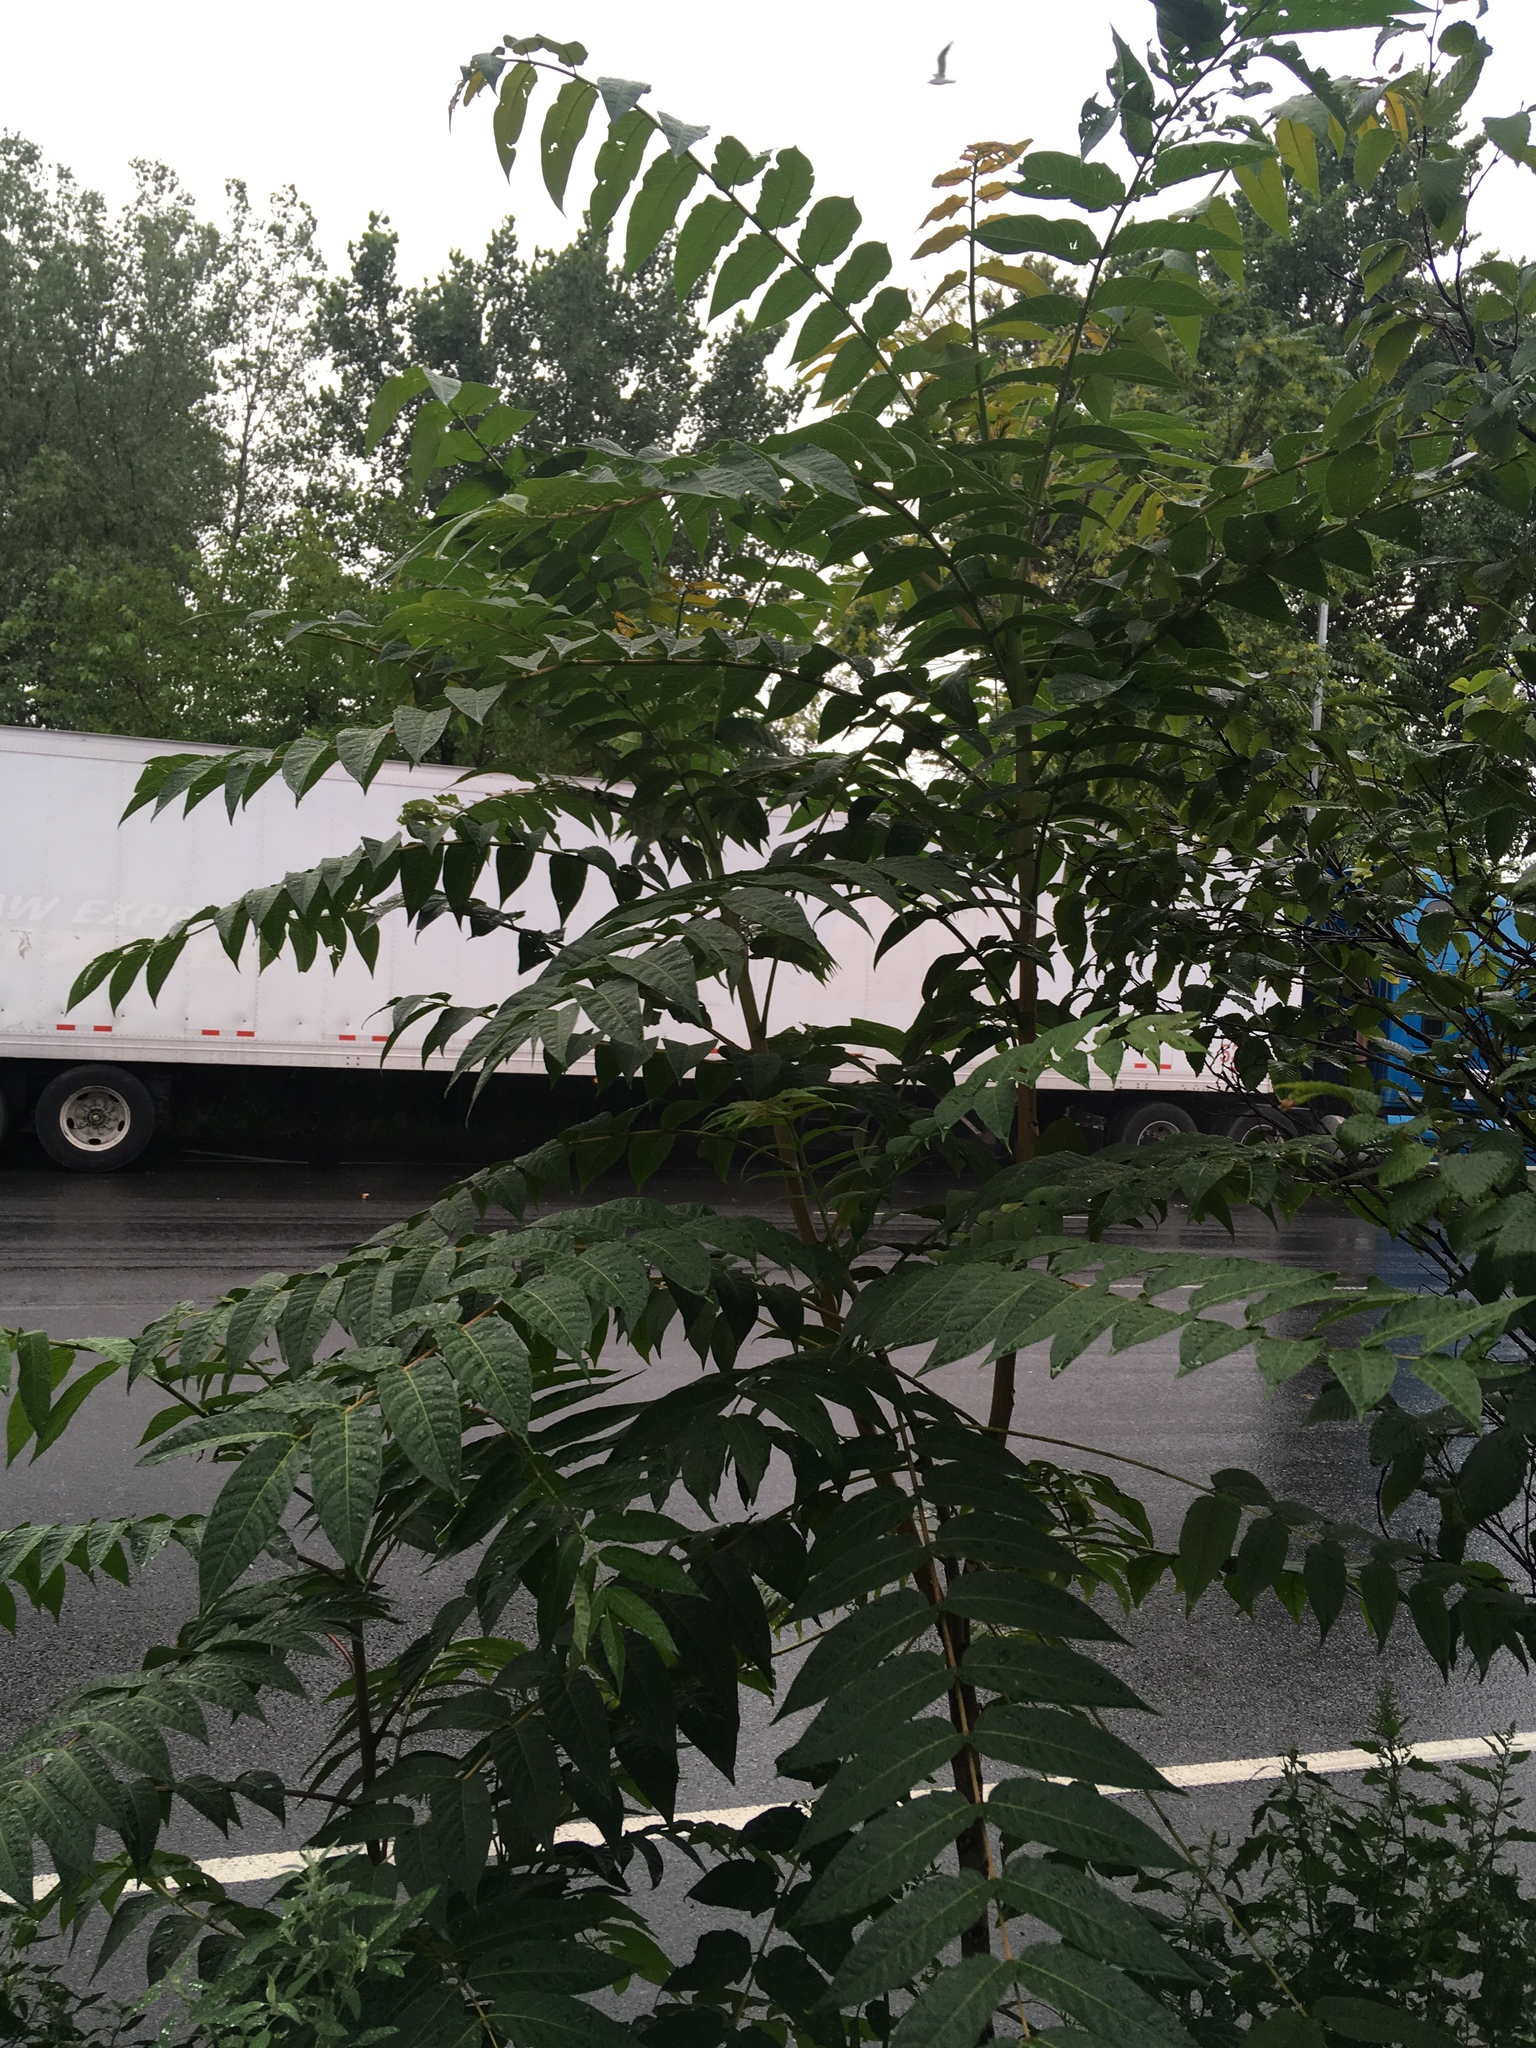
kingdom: Plantae
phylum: Tracheophyta
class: Magnoliopsida
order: Sapindales
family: Simaroubaceae
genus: Ailanthus
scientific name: Ailanthus altissima
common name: Tree-of-heaven
